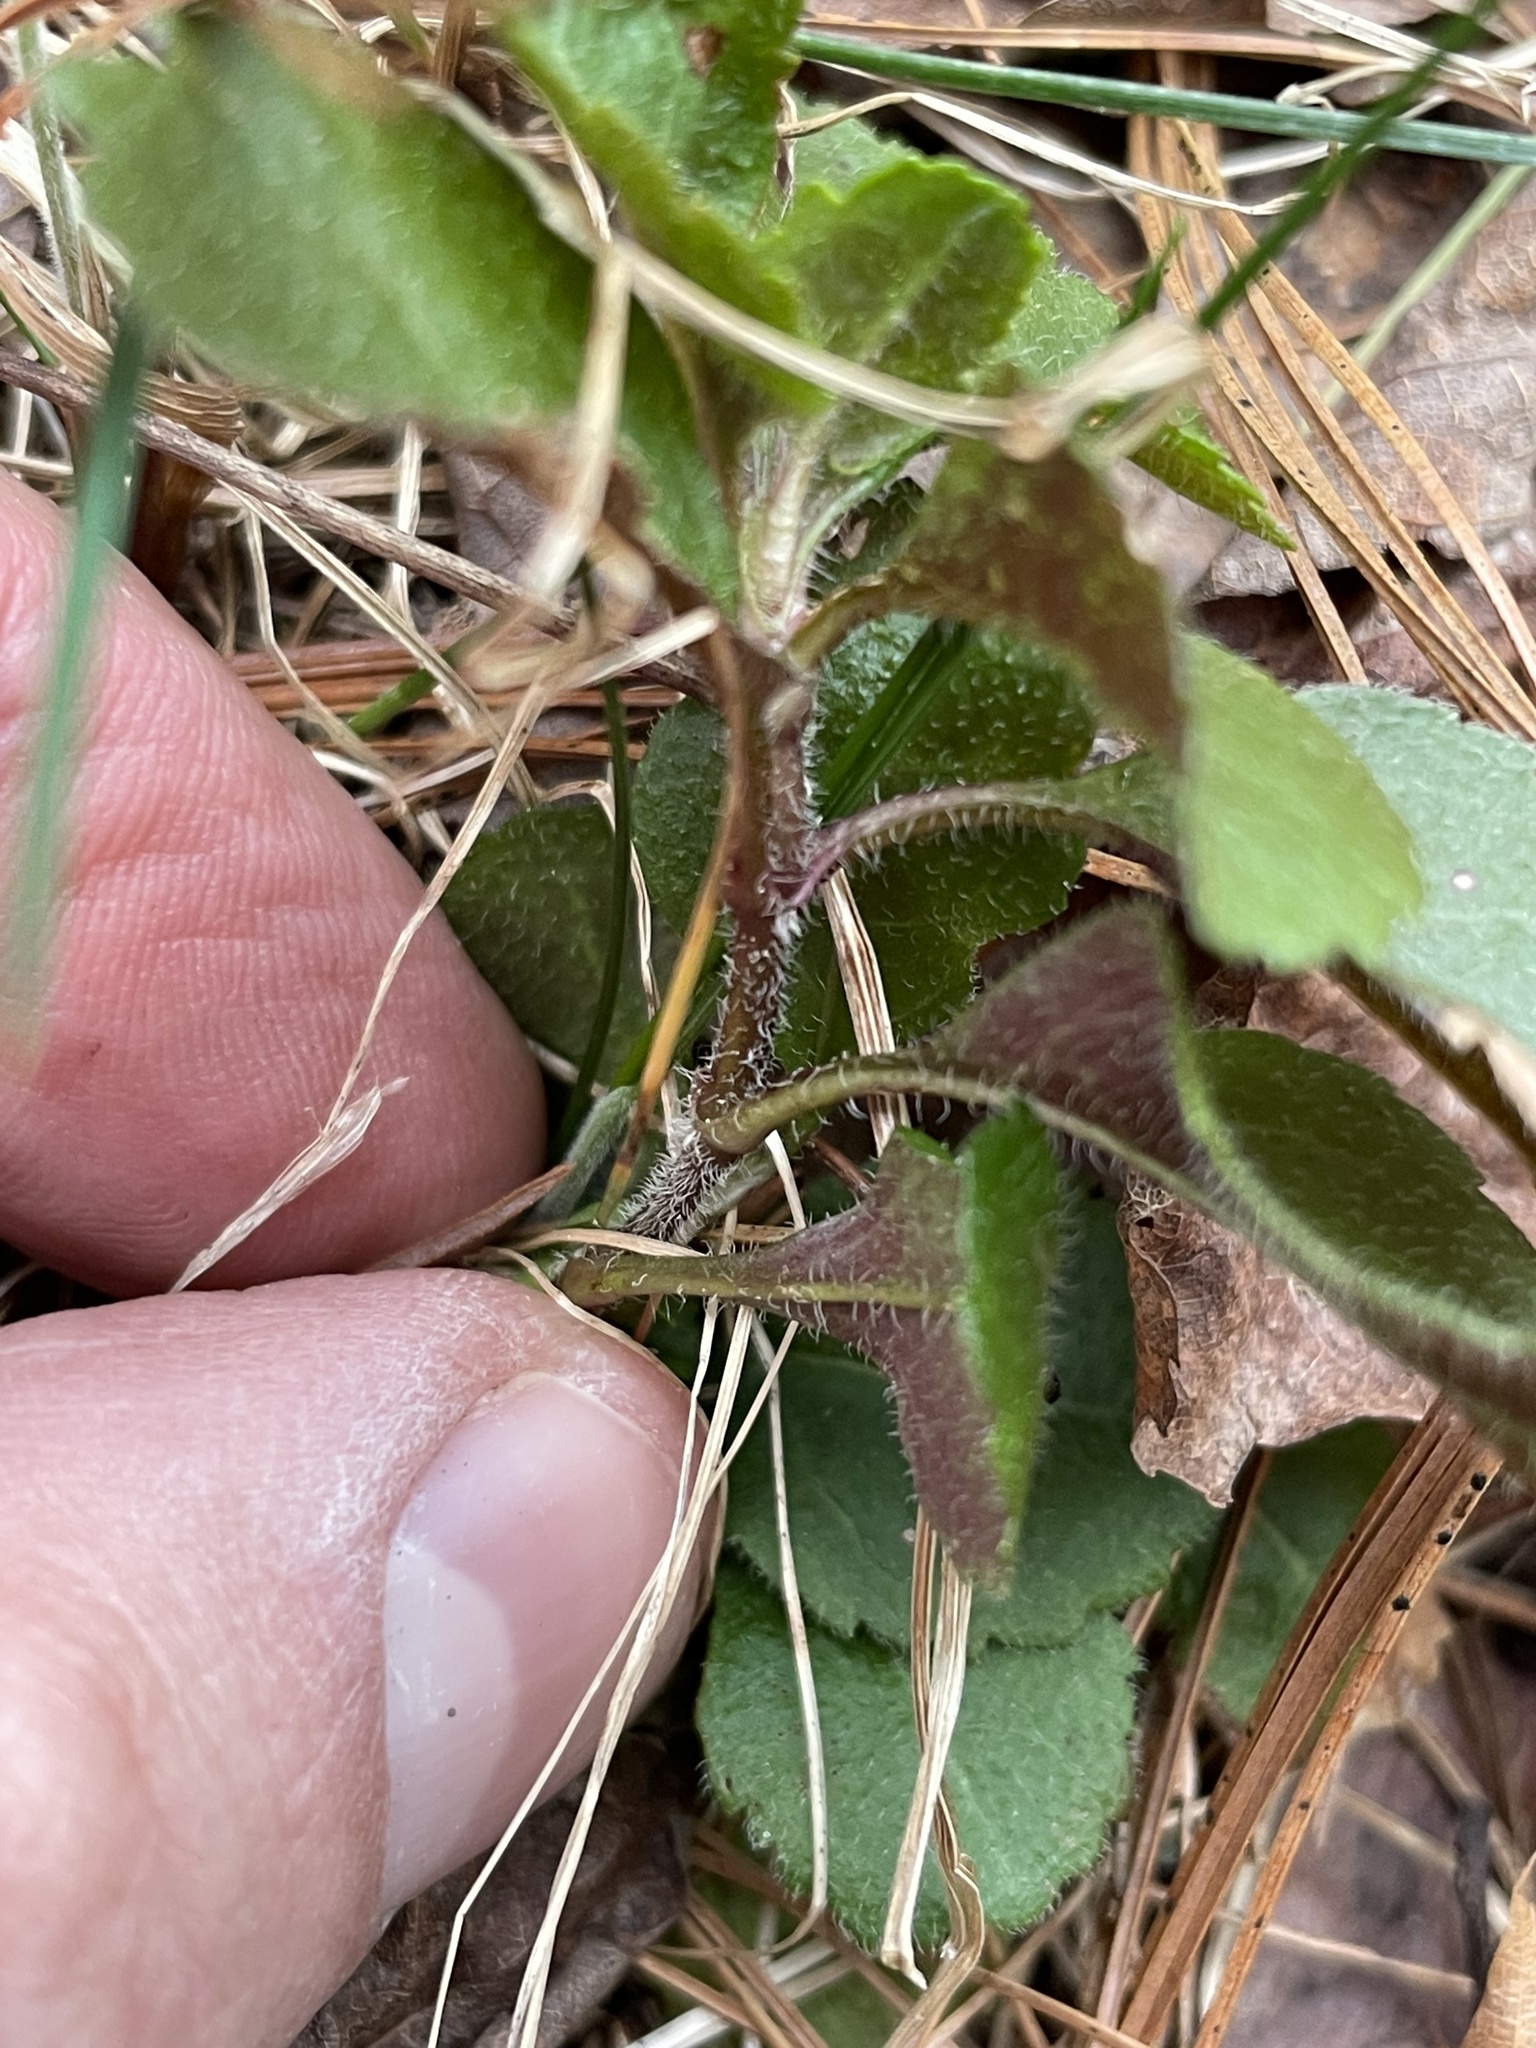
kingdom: Plantae
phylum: Tracheophyta
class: Magnoliopsida
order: Lamiales
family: Plantaginaceae
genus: Veronica
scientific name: Veronica officinalis
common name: Common speedwell
